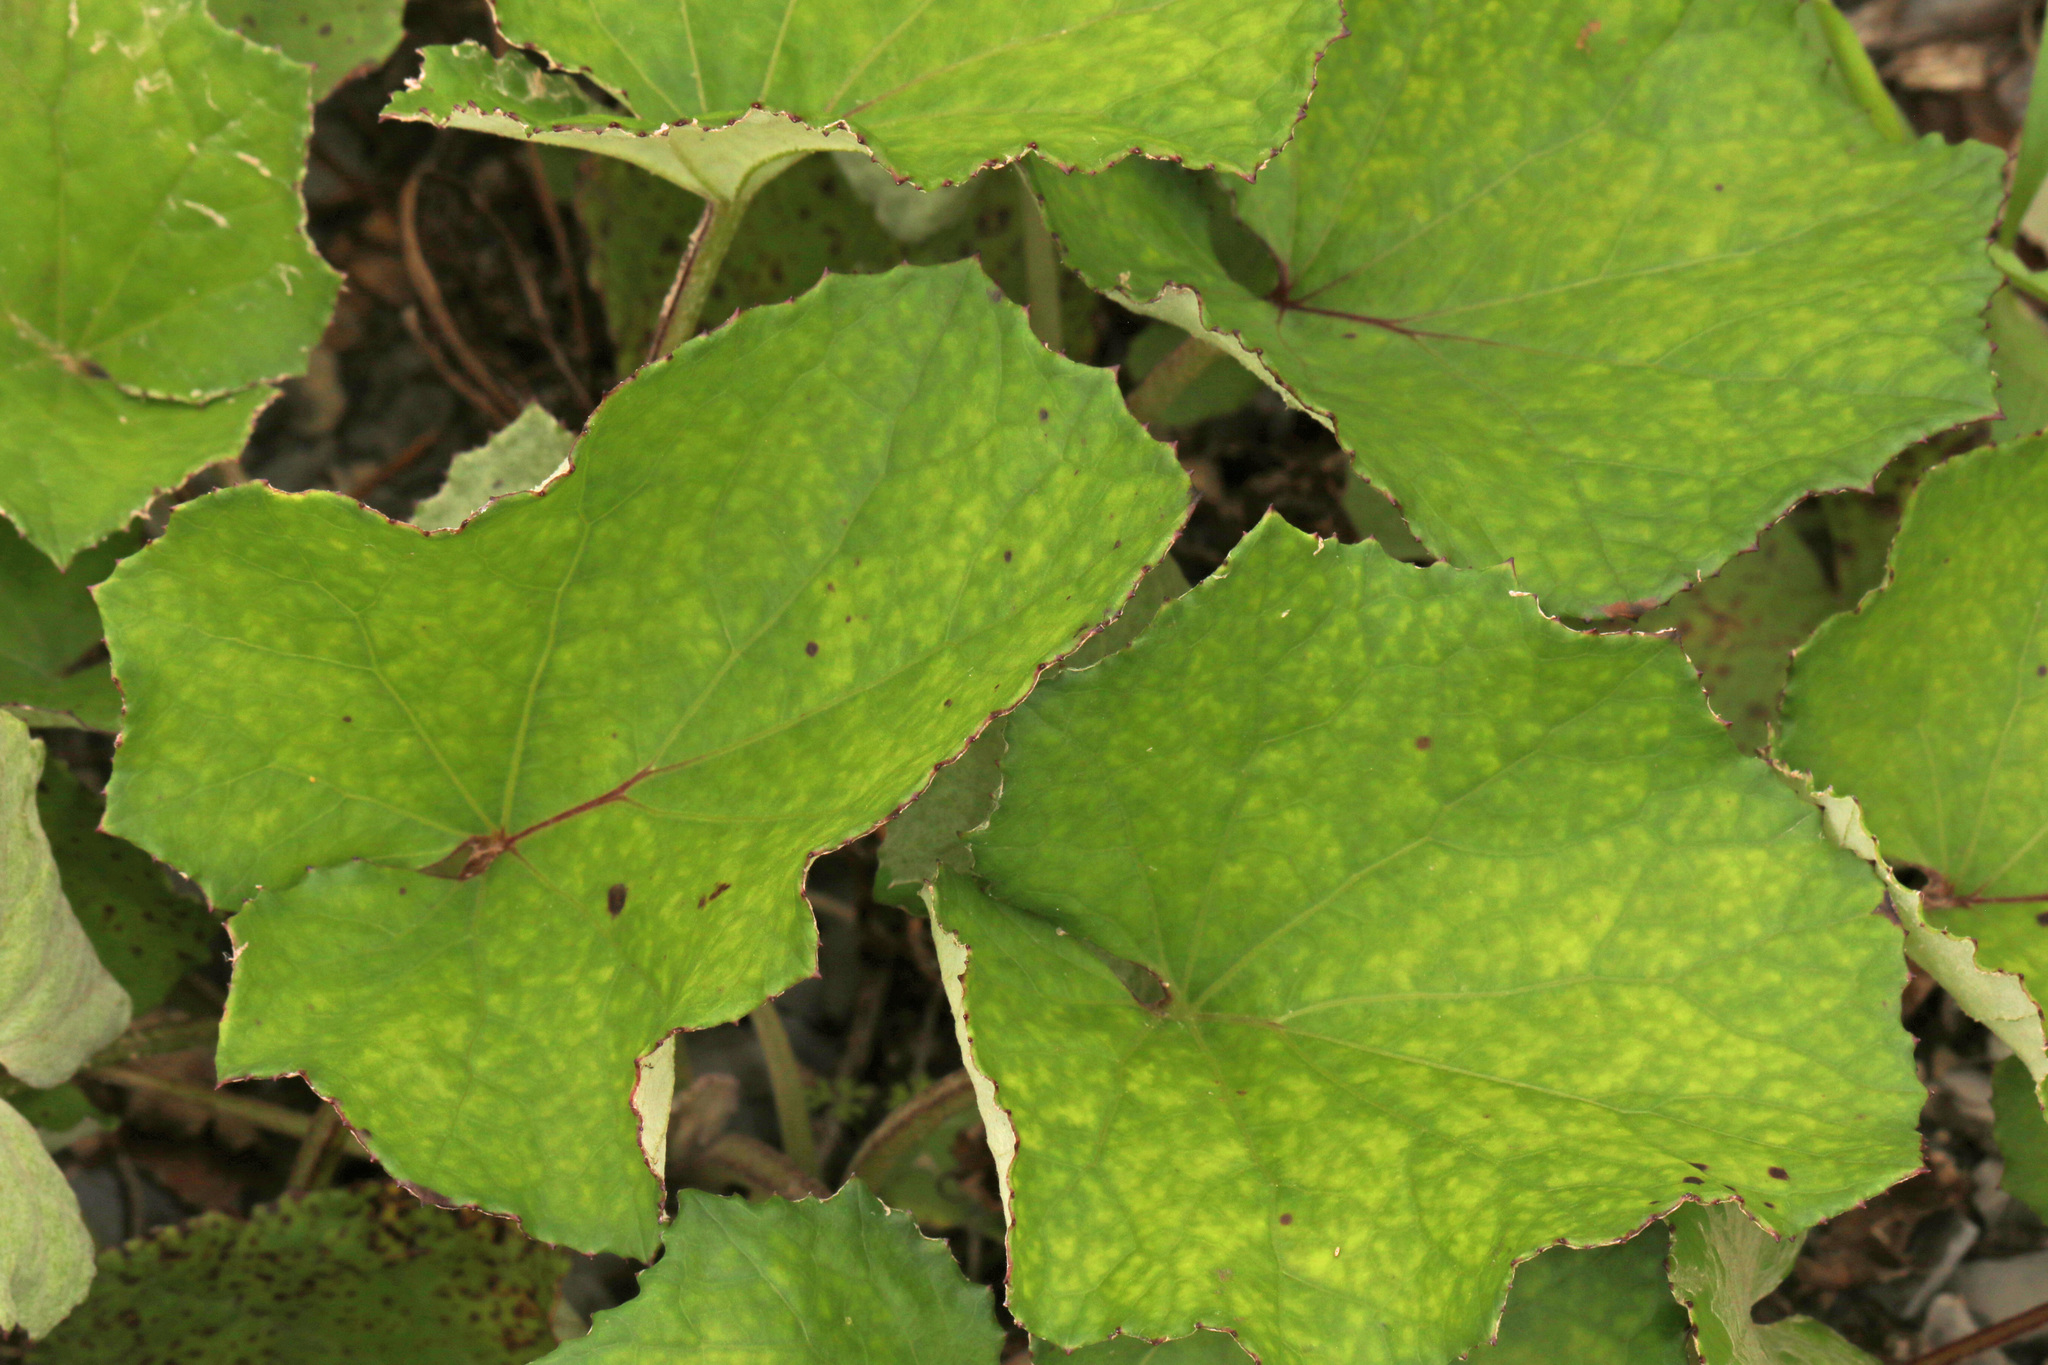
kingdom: Plantae
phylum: Tracheophyta
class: Magnoliopsida
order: Asterales
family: Asteraceae
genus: Tussilago
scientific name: Tussilago farfara
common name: Coltsfoot
